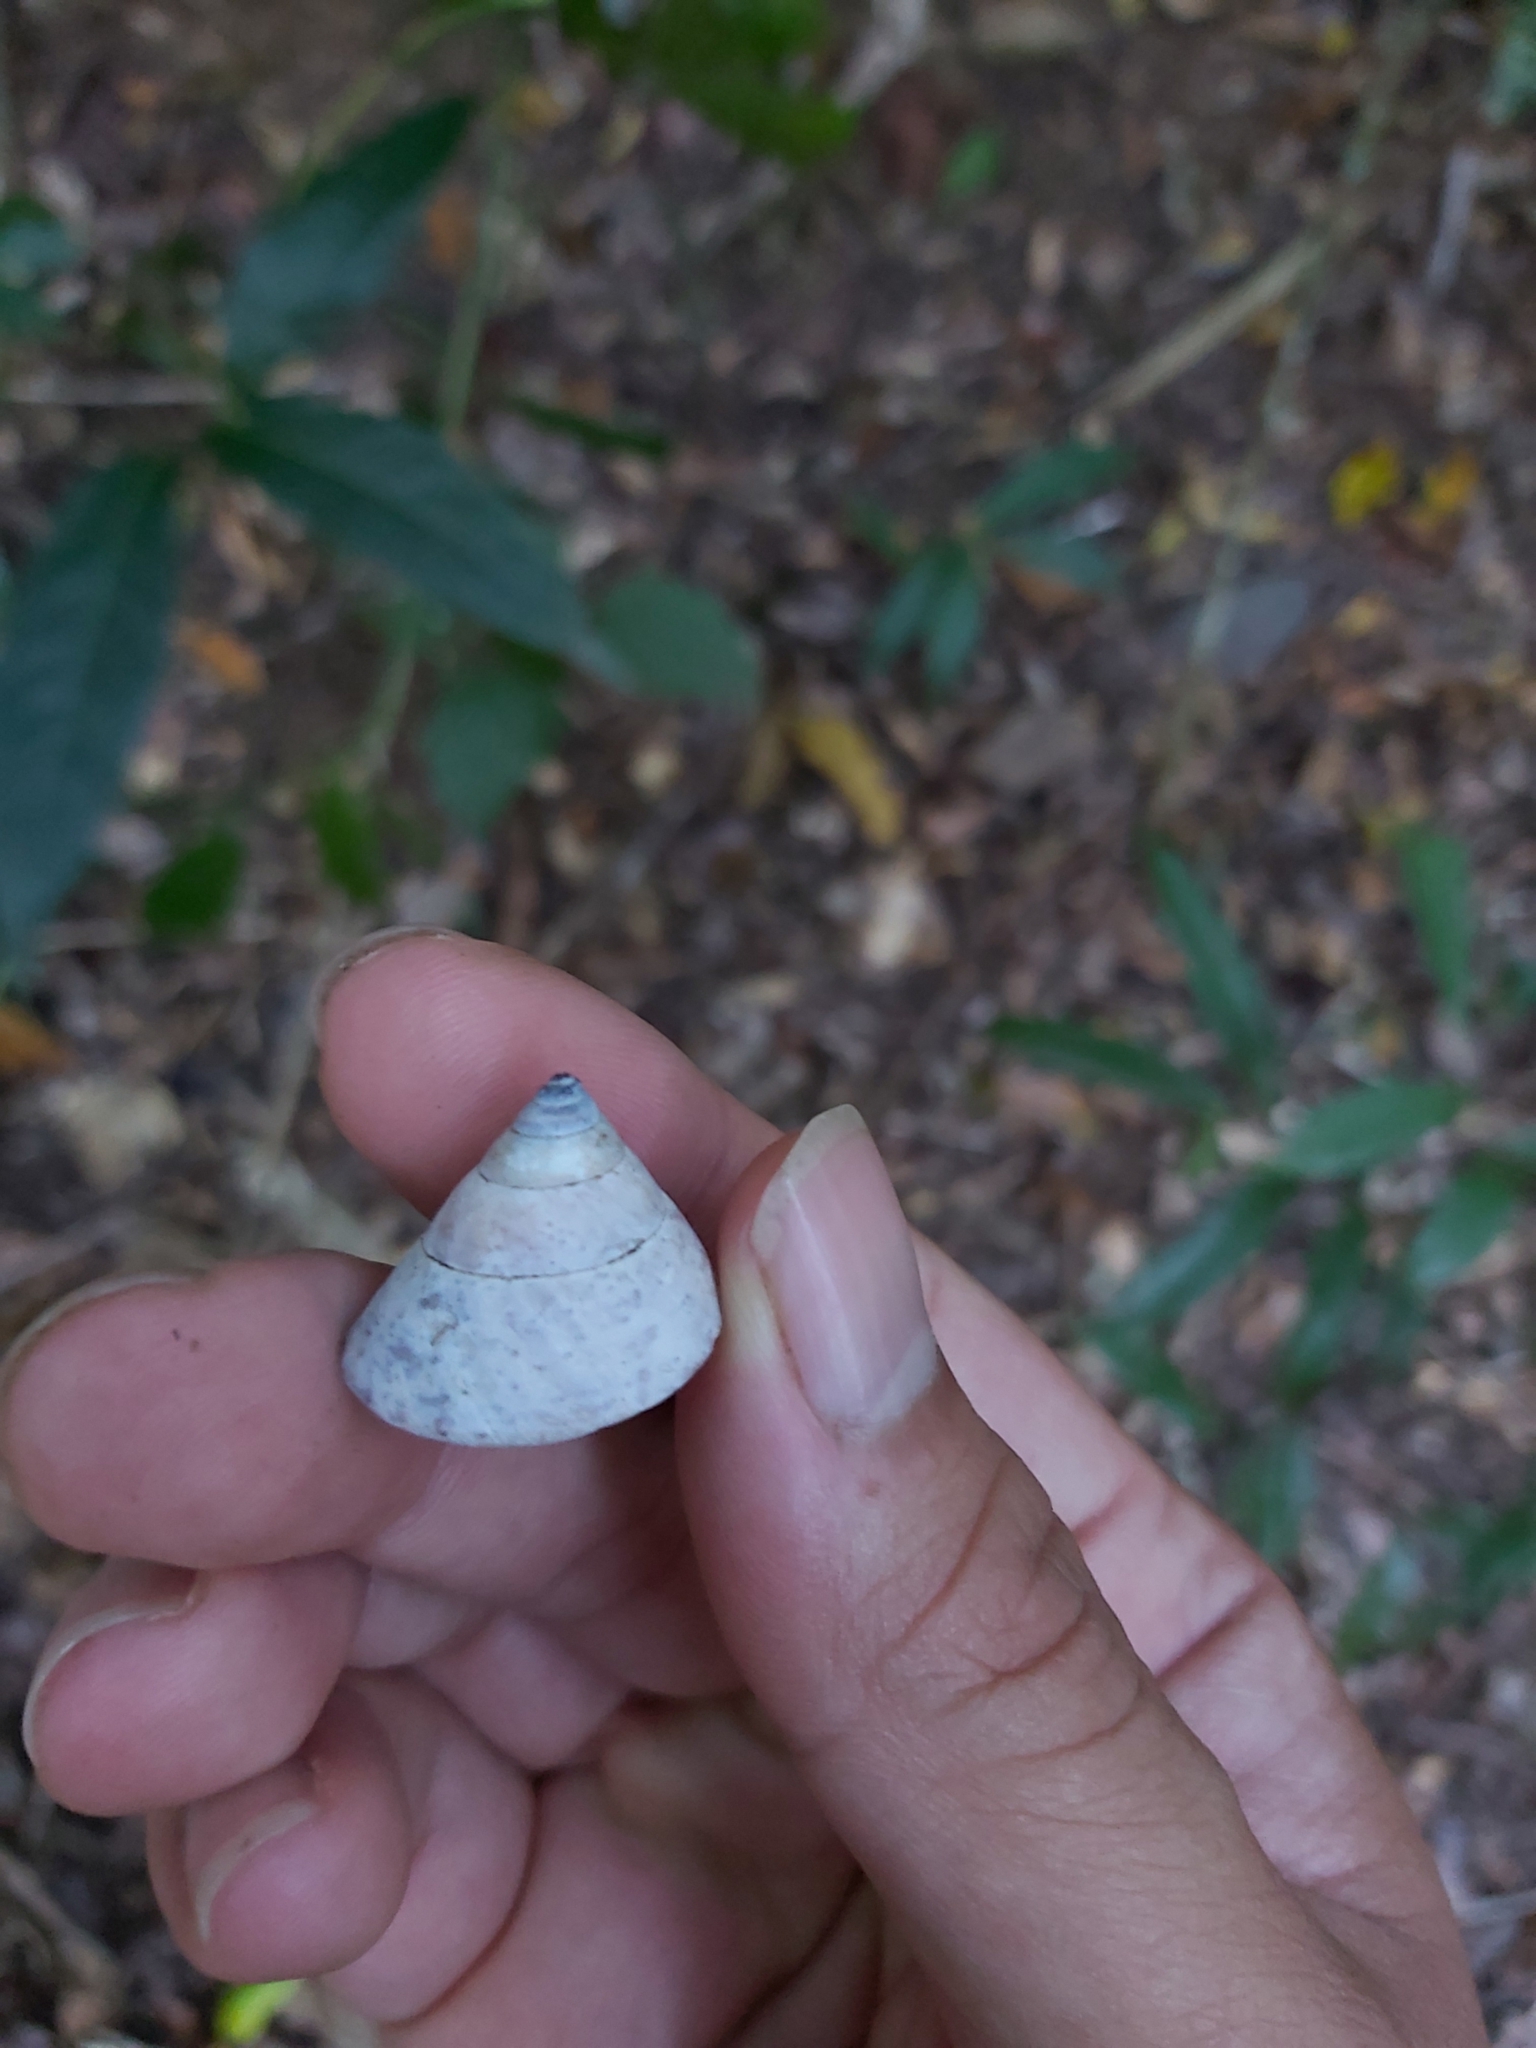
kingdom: Animalia
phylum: Mollusca
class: Gastropoda
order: Stylommatophora
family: Camaenidae
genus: Rhynchotrochus
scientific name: Rhynchotrochus macgillivrayi
